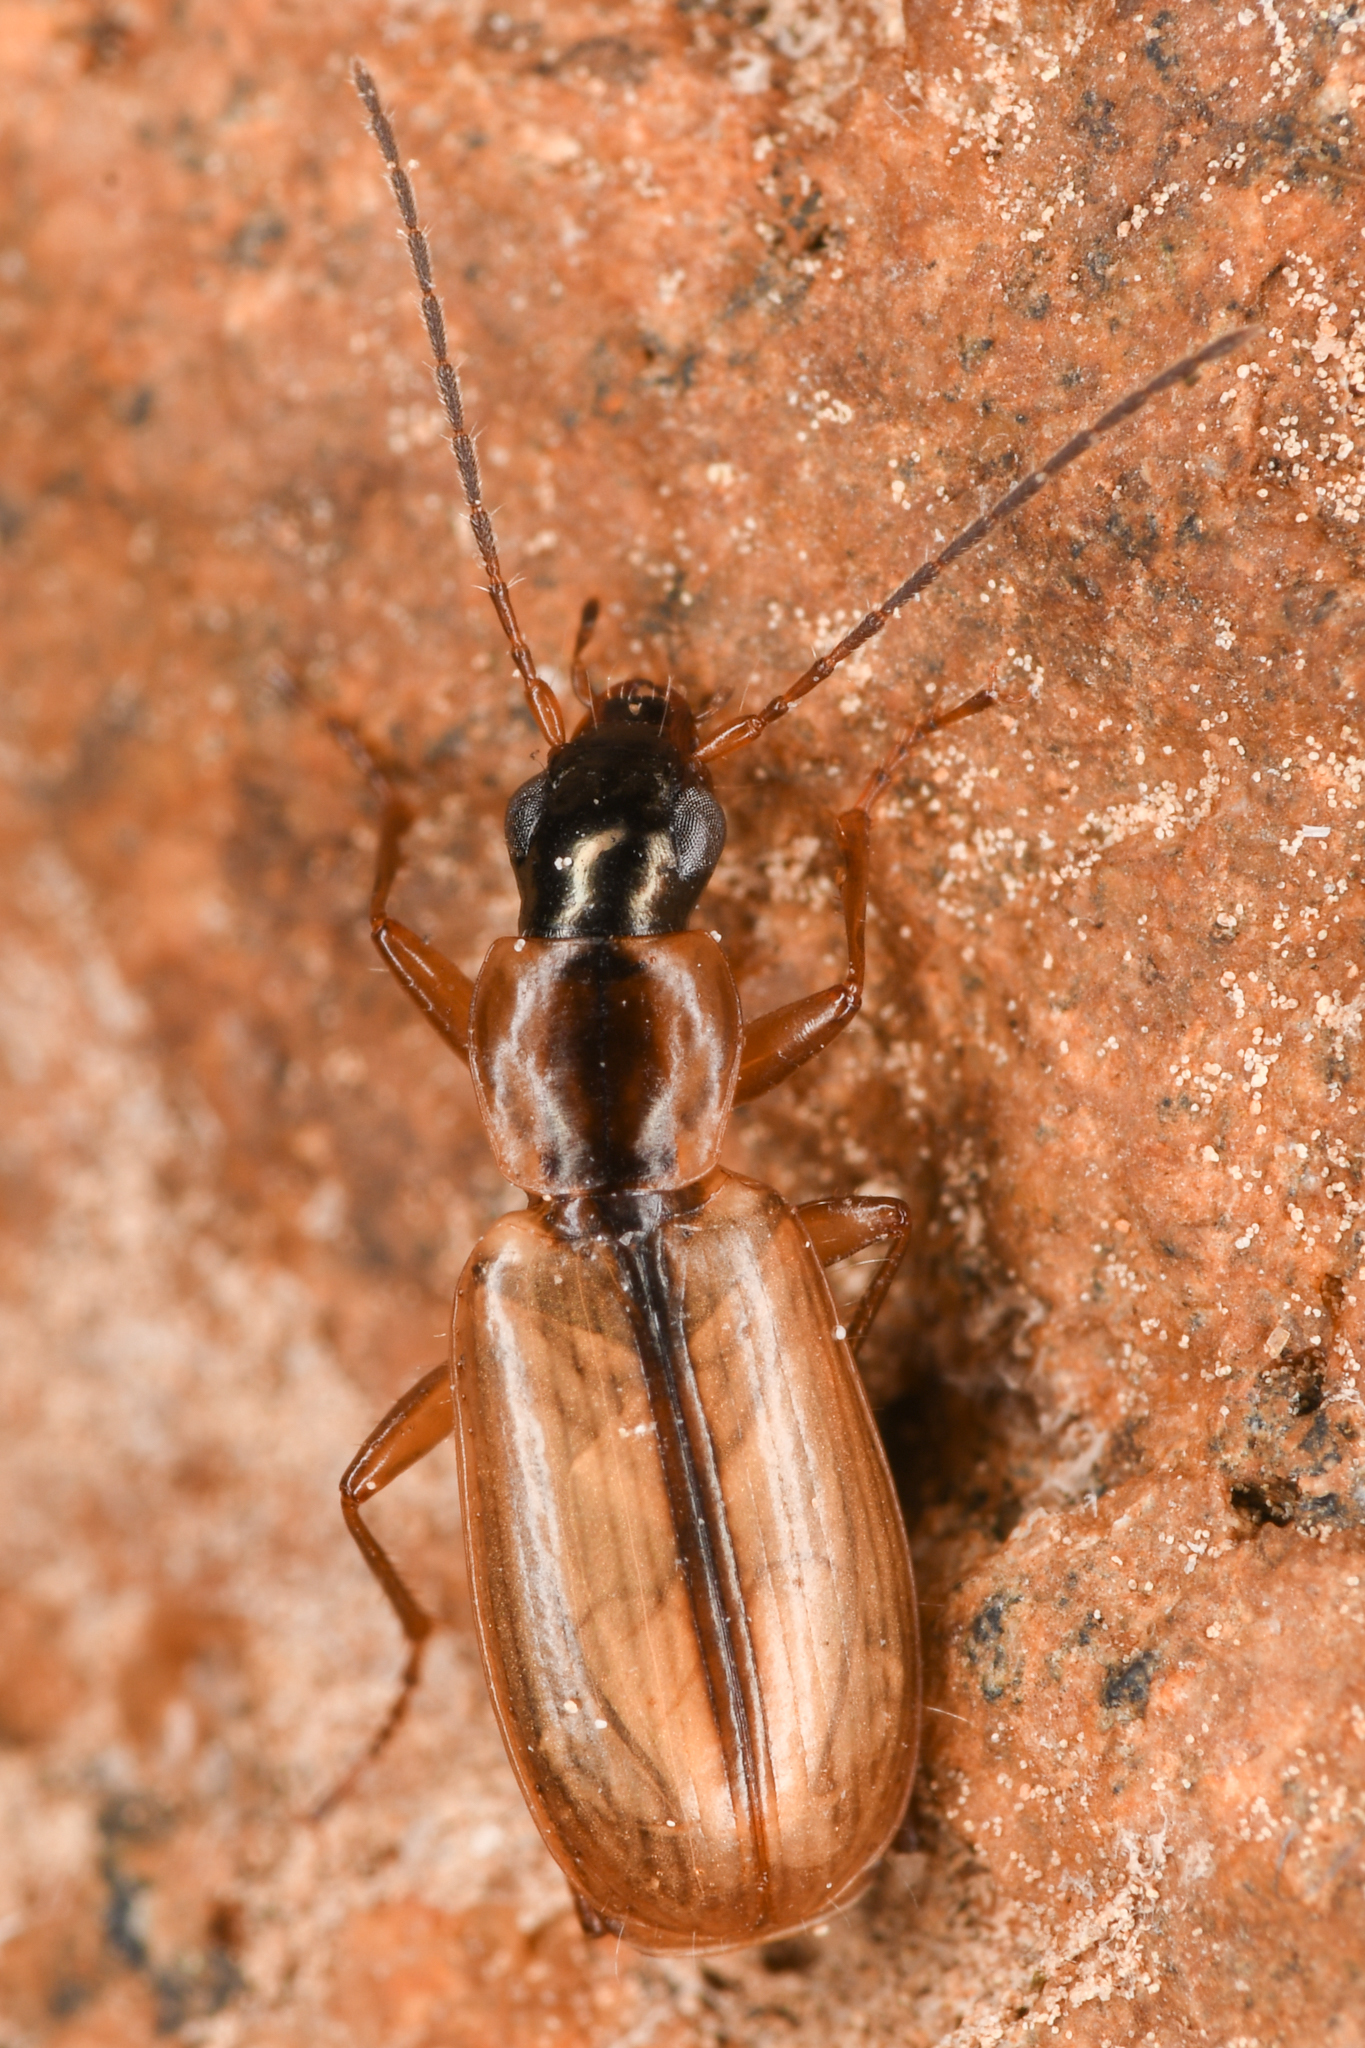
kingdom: Animalia
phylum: Arthropoda
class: Insecta
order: Coleoptera
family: Carabidae
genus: Agonum
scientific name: Agonum nigriceps
